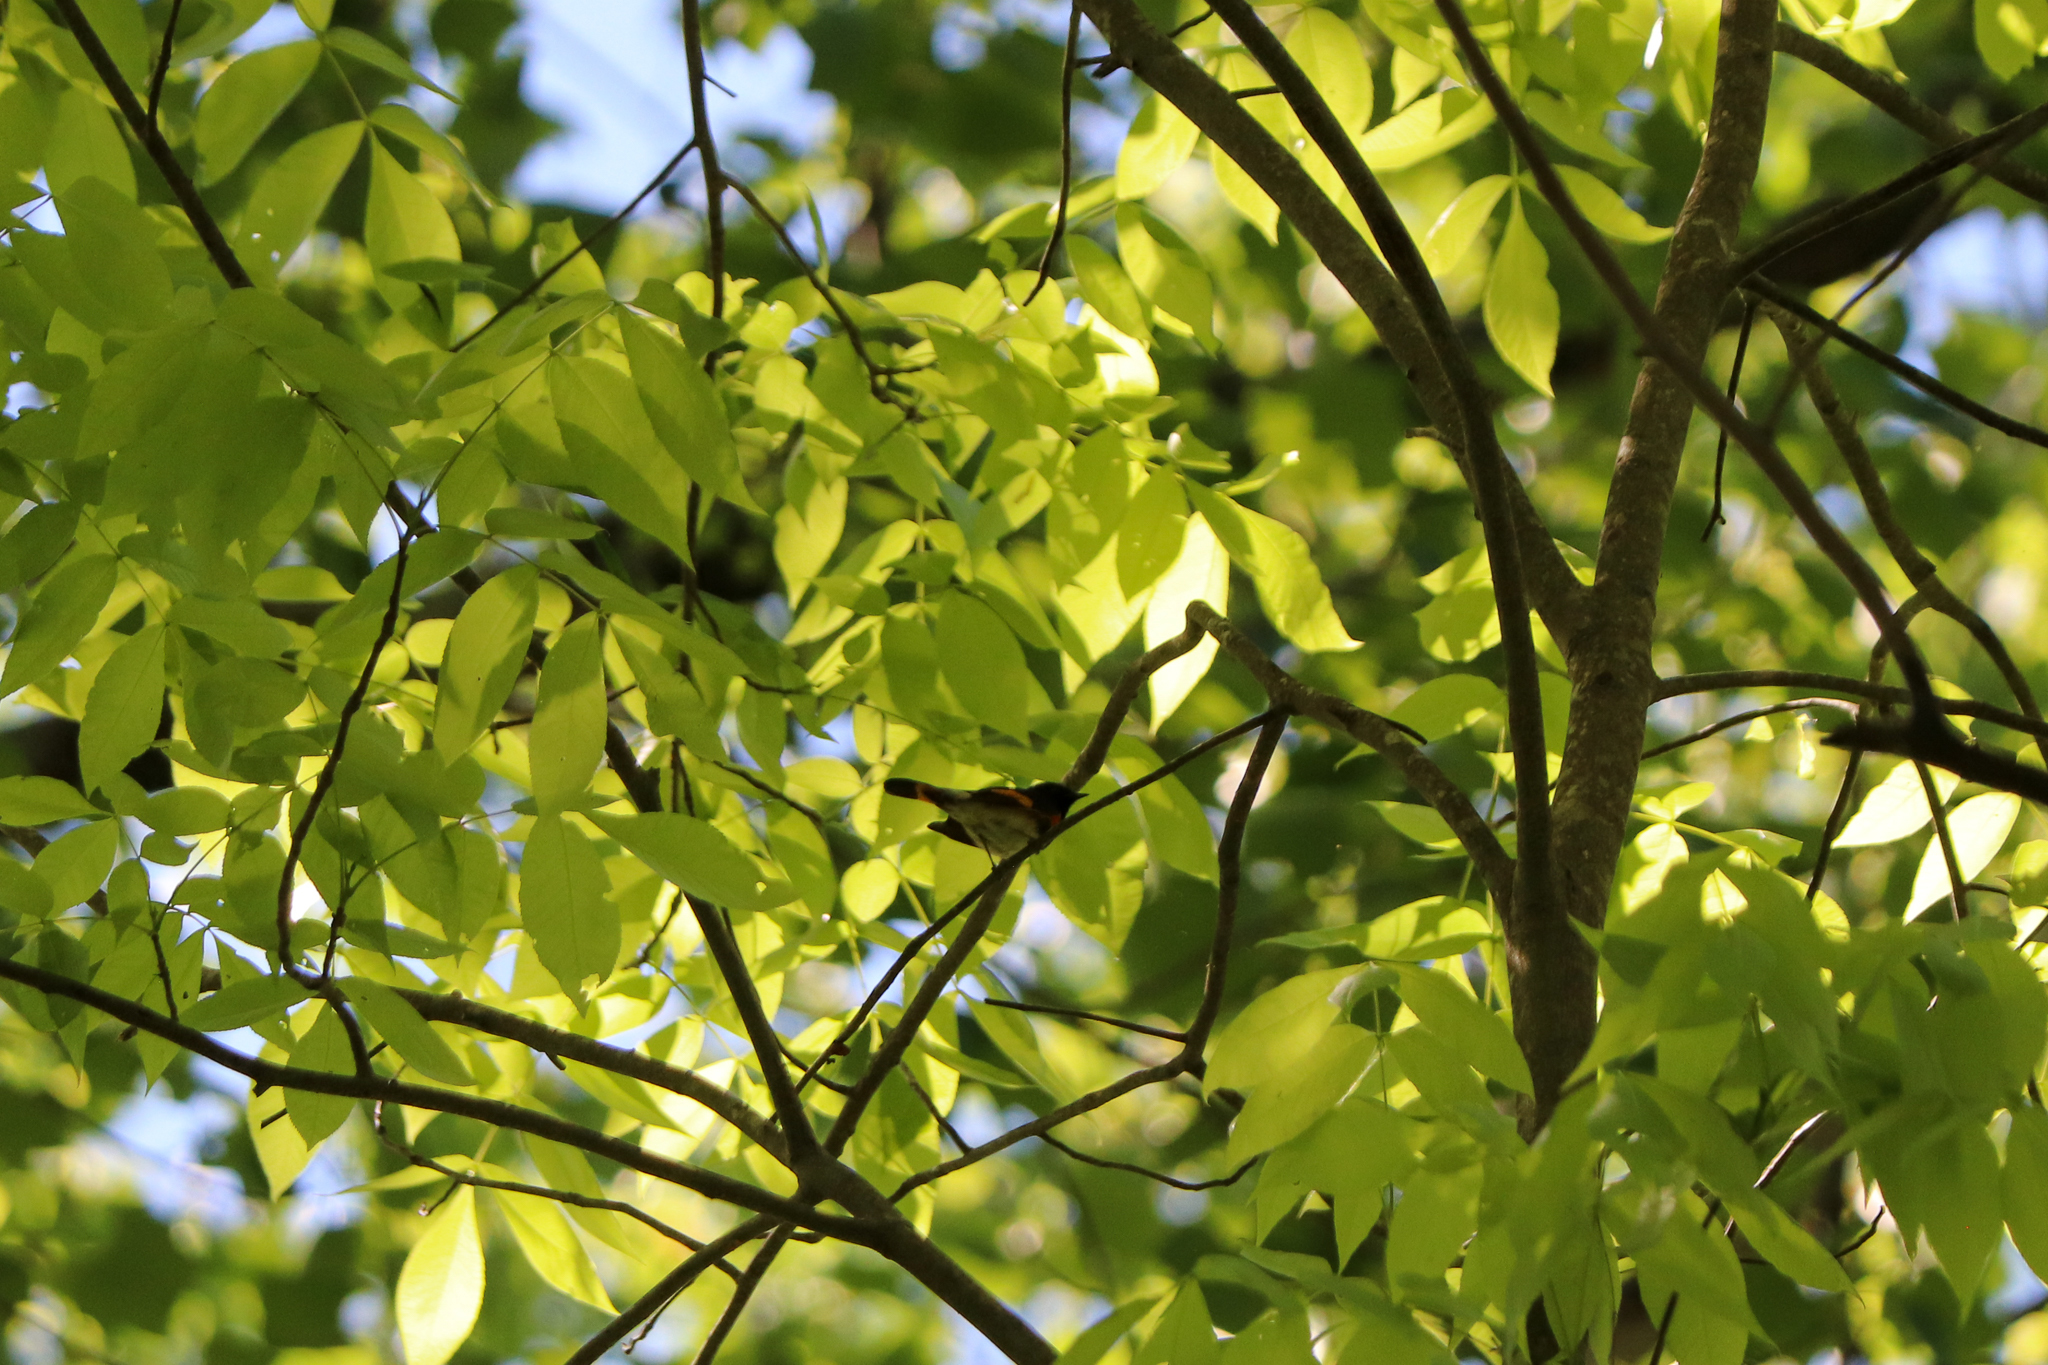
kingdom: Animalia
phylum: Chordata
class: Aves
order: Passeriformes
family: Parulidae
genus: Setophaga
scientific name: Setophaga ruticilla
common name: American redstart
